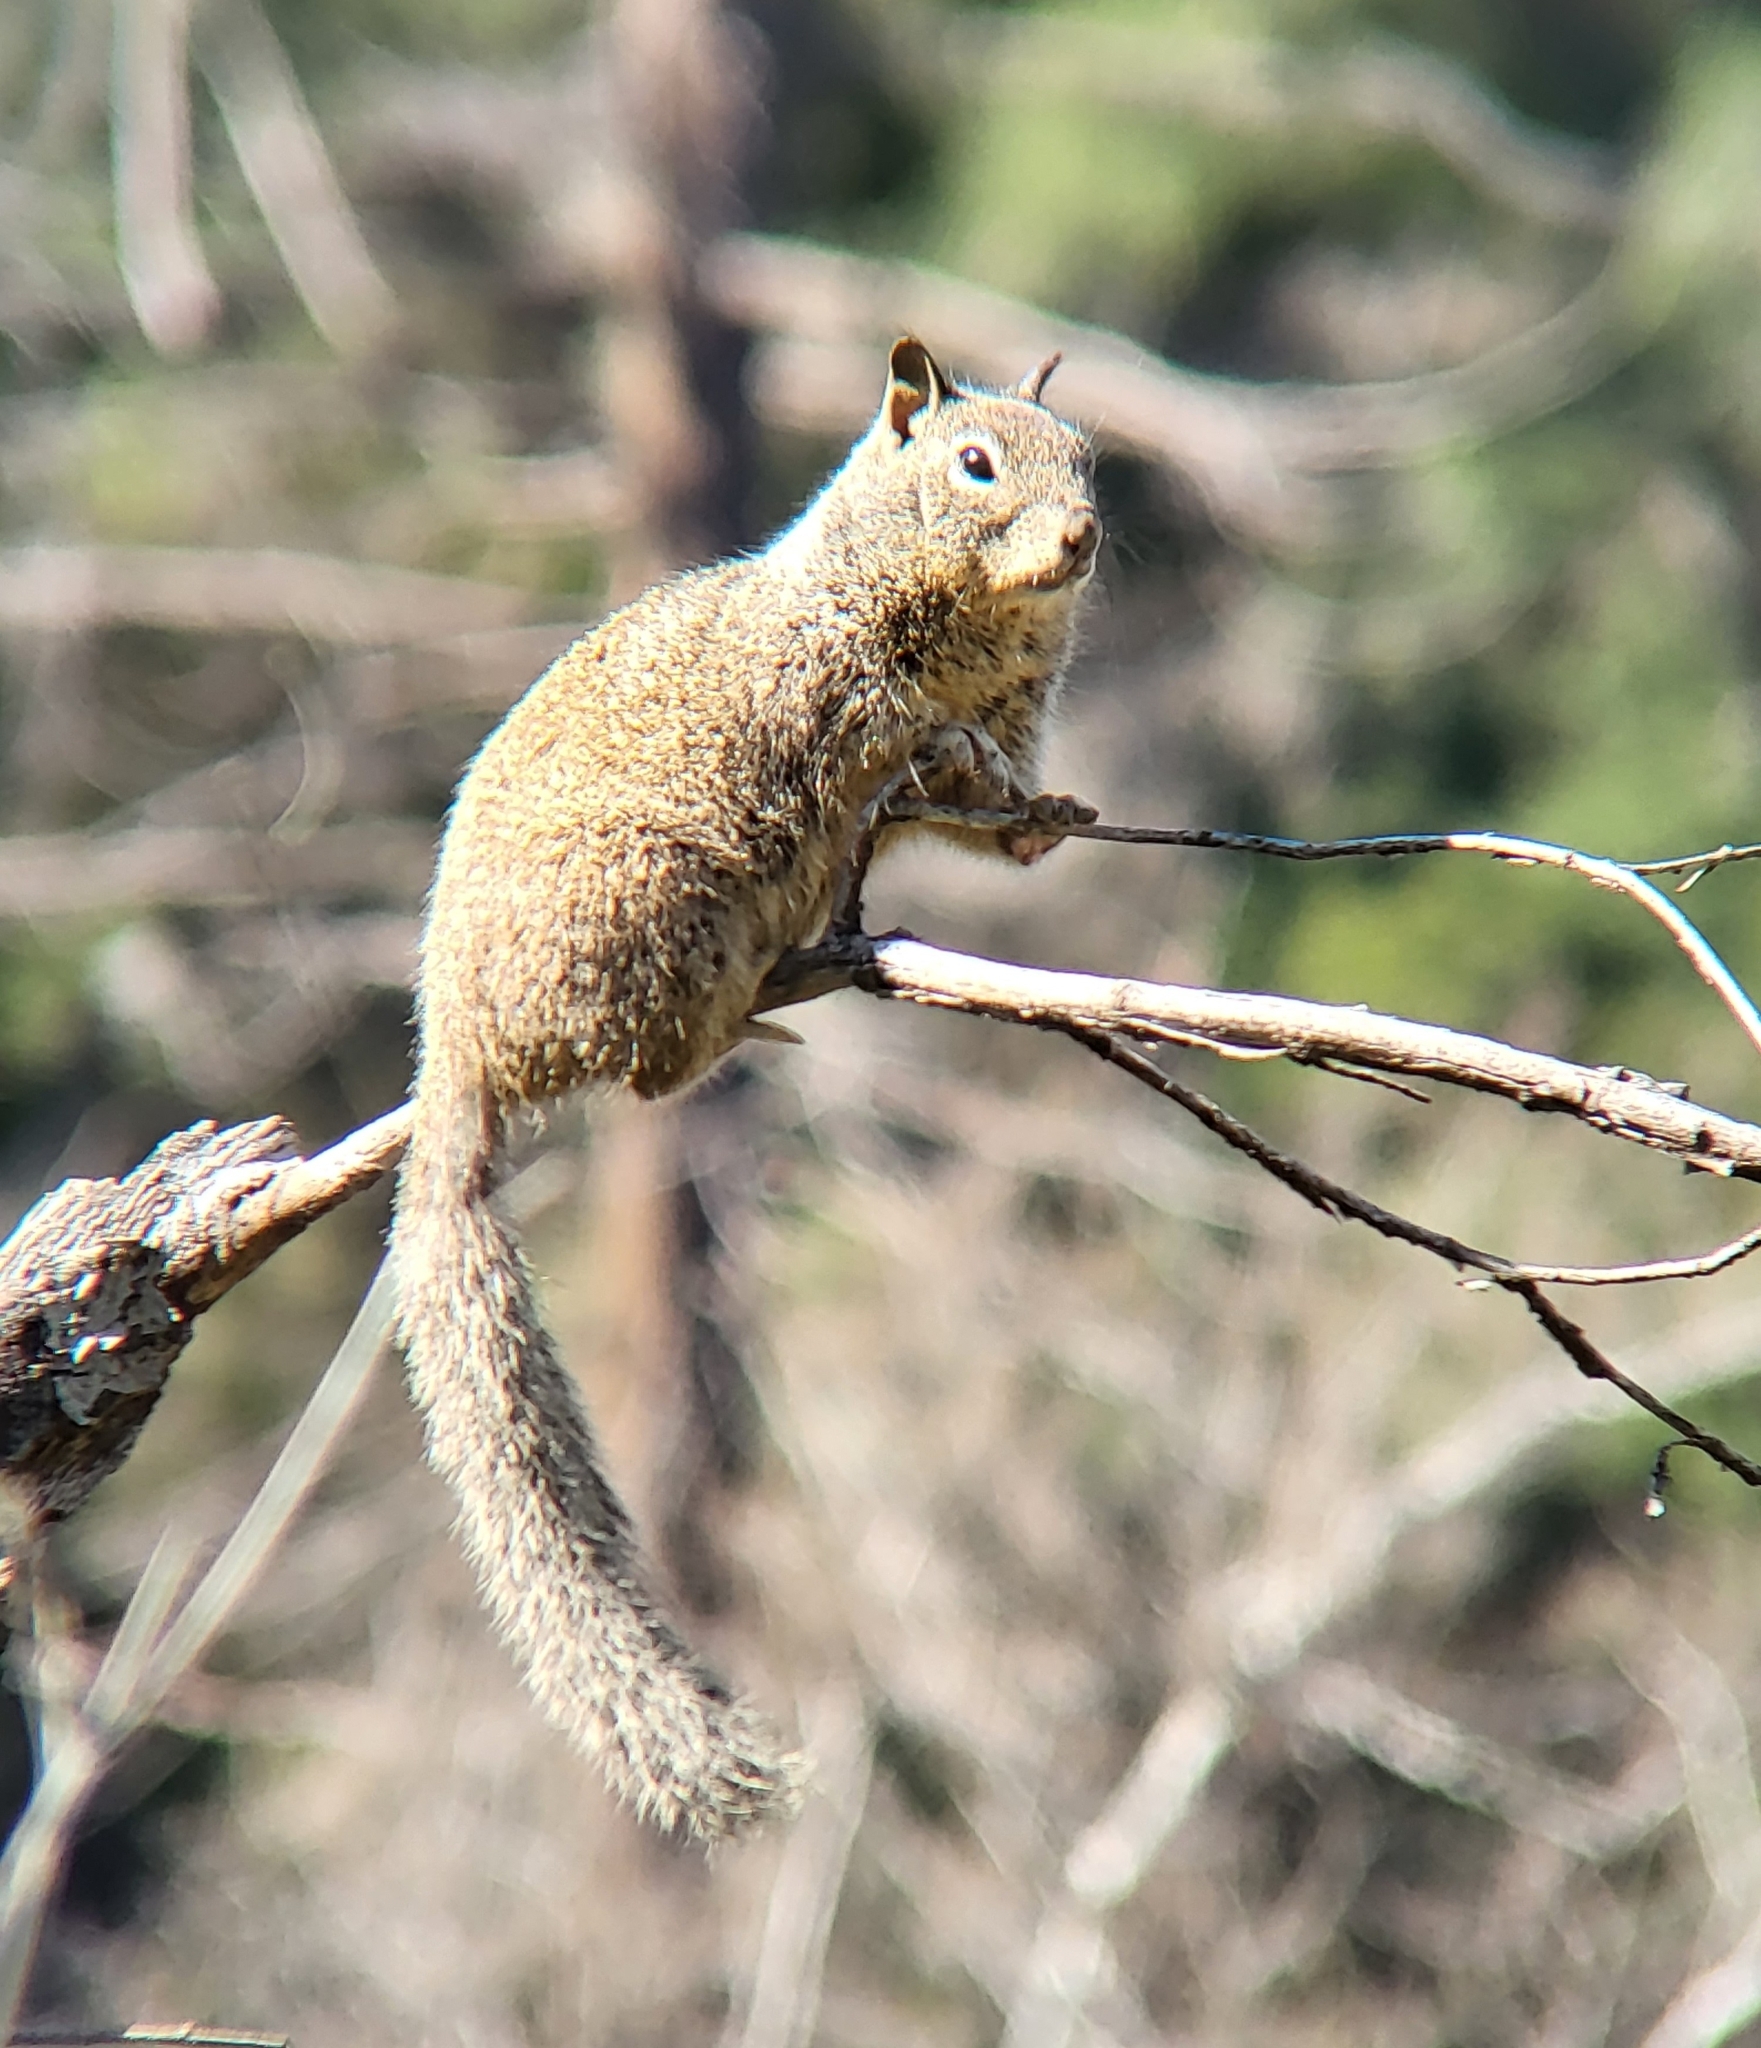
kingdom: Animalia
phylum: Chordata
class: Mammalia
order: Rodentia
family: Sciuridae
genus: Otospermophilus
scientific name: Otospermophilus beecheyi
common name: California ground squirrel
